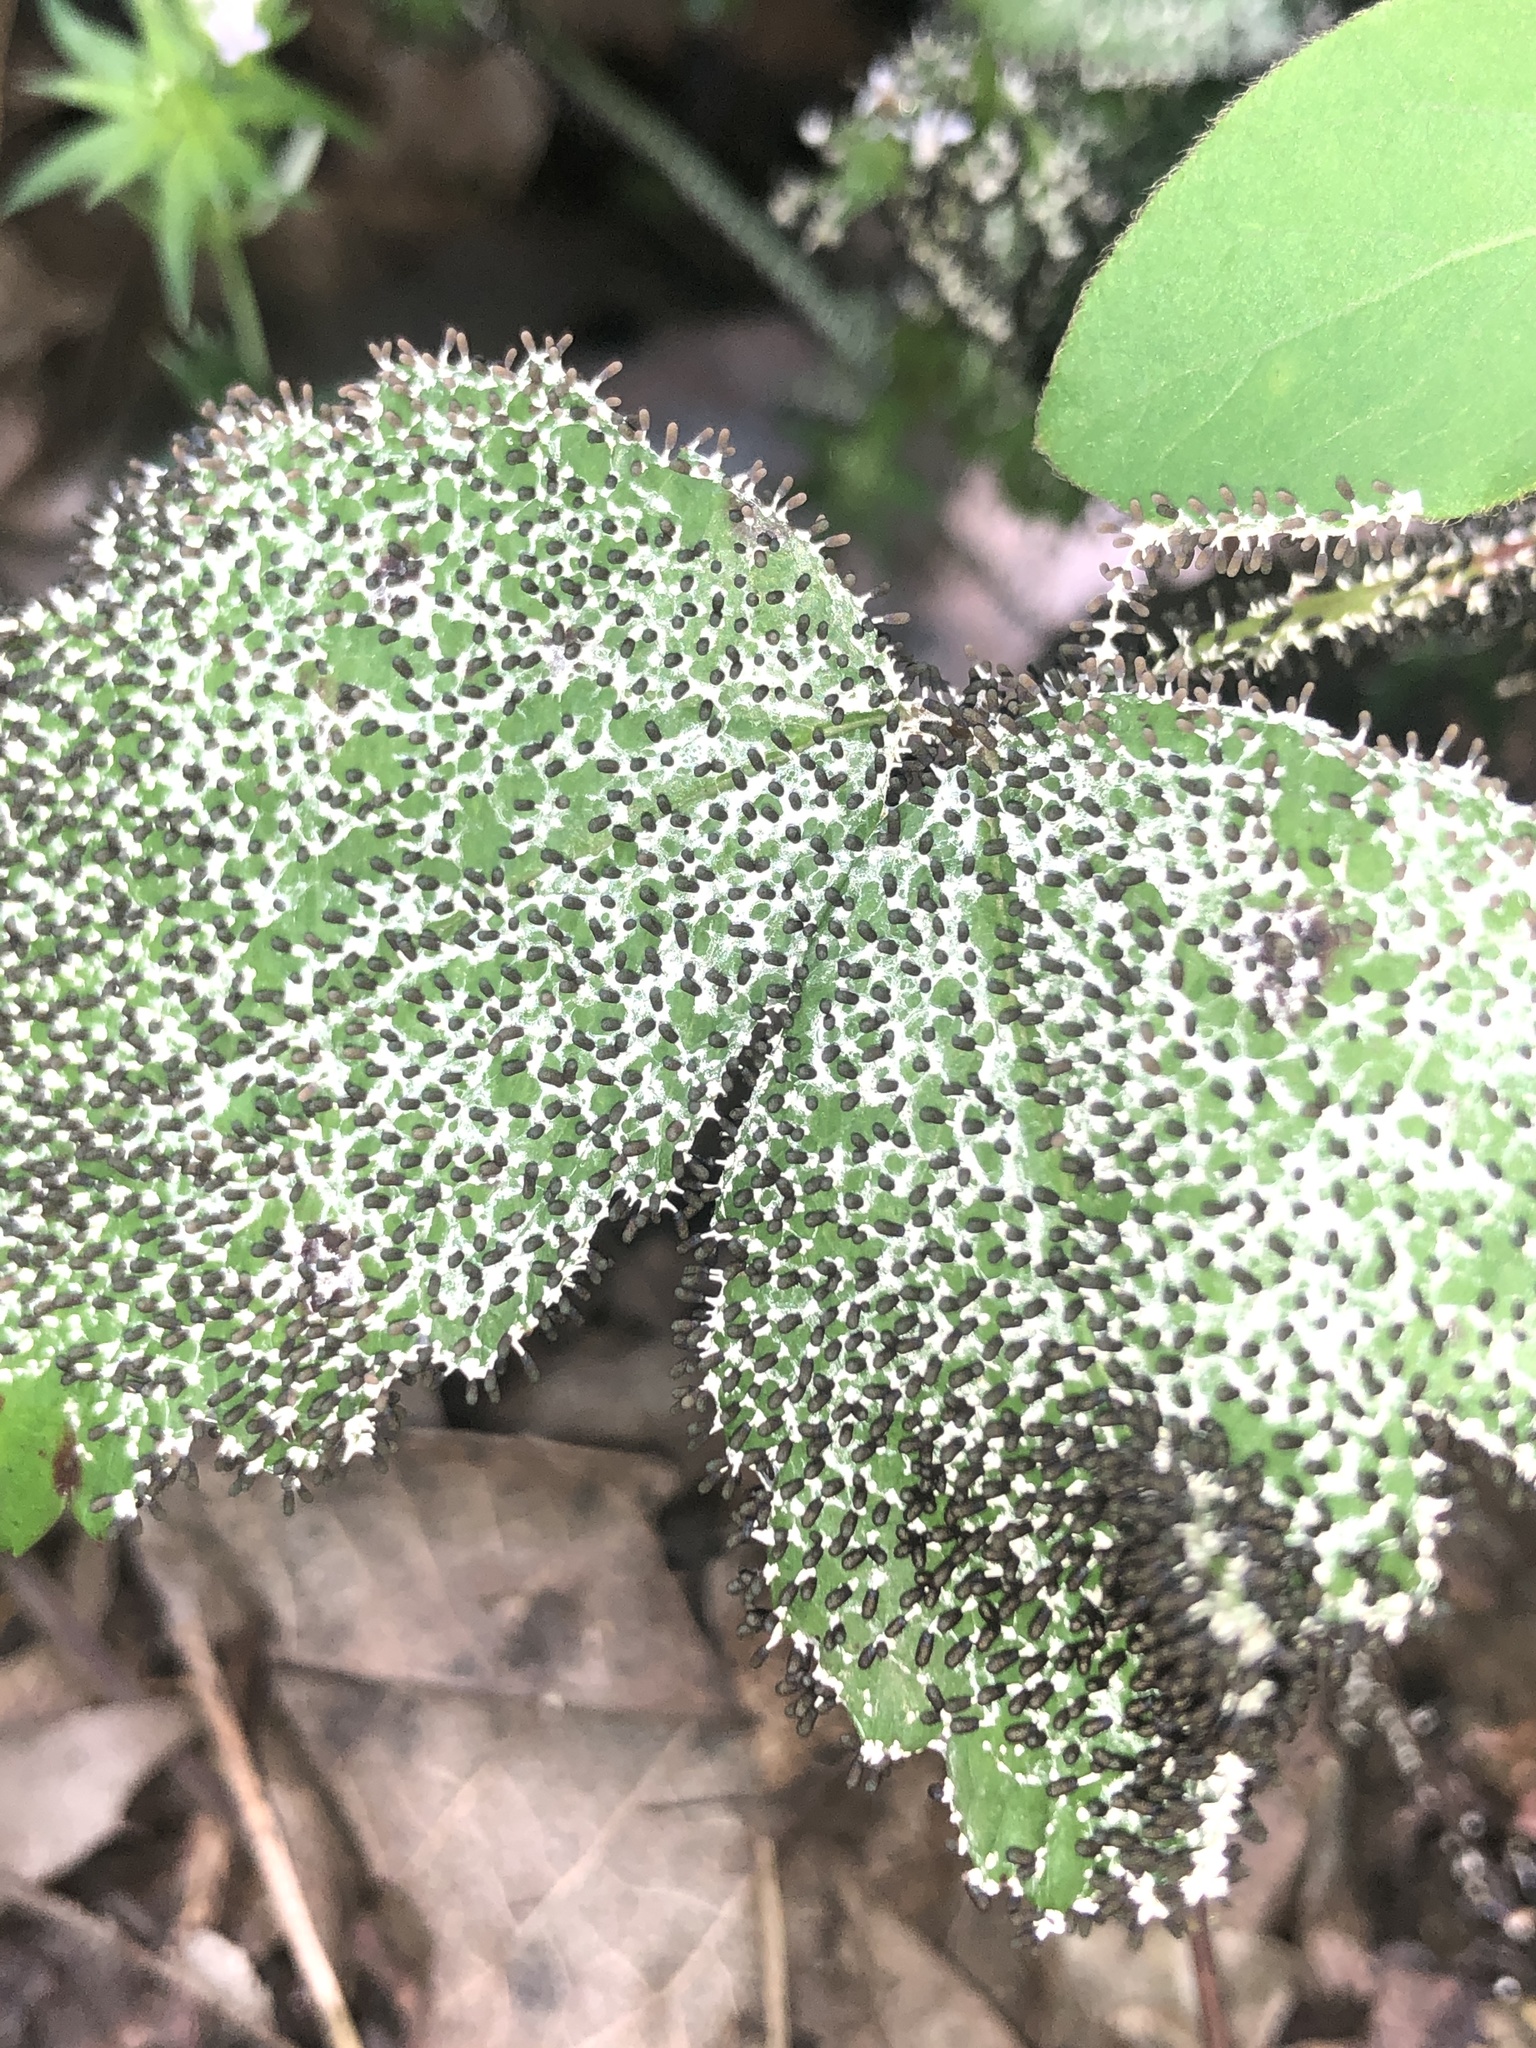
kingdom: Protozoa
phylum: Mycetozoa
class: Myxomycetes
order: Physarales
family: Didymiaceae
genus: Diachea
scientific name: Diachea leucopodia
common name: White-footed slime
